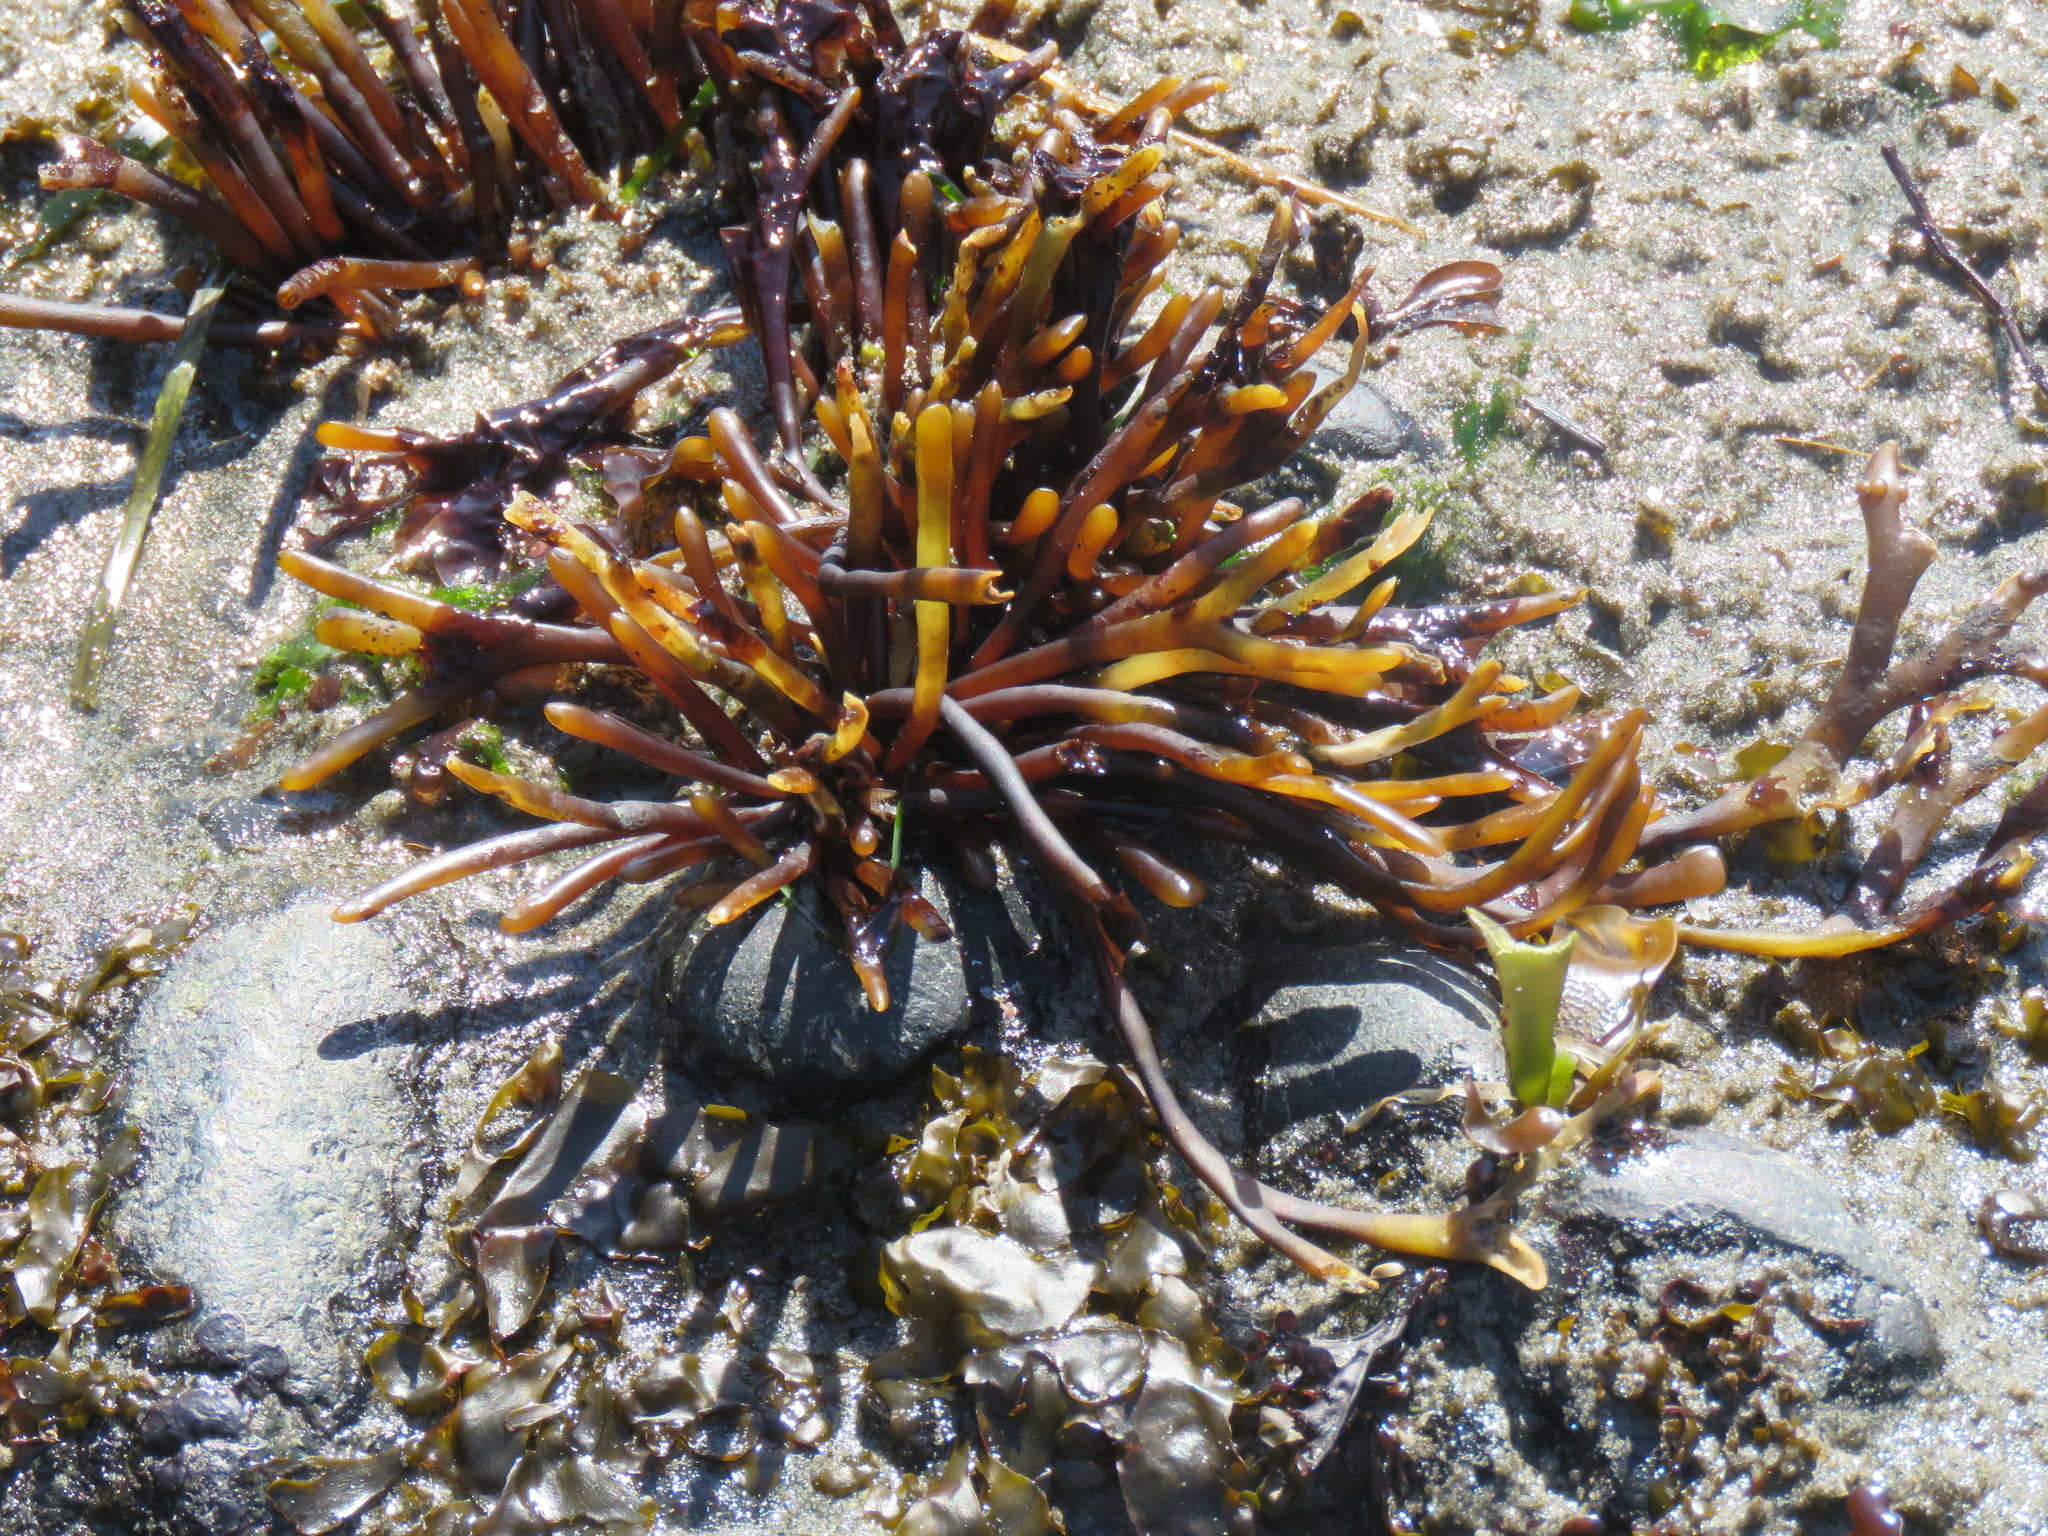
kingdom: Plantae
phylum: Rhodophyta
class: Florideophyceae
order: Gigartinales
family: Phyllophoraceae
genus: Ahnfeltiopsis
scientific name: Ahnfeltiopsis linearis
